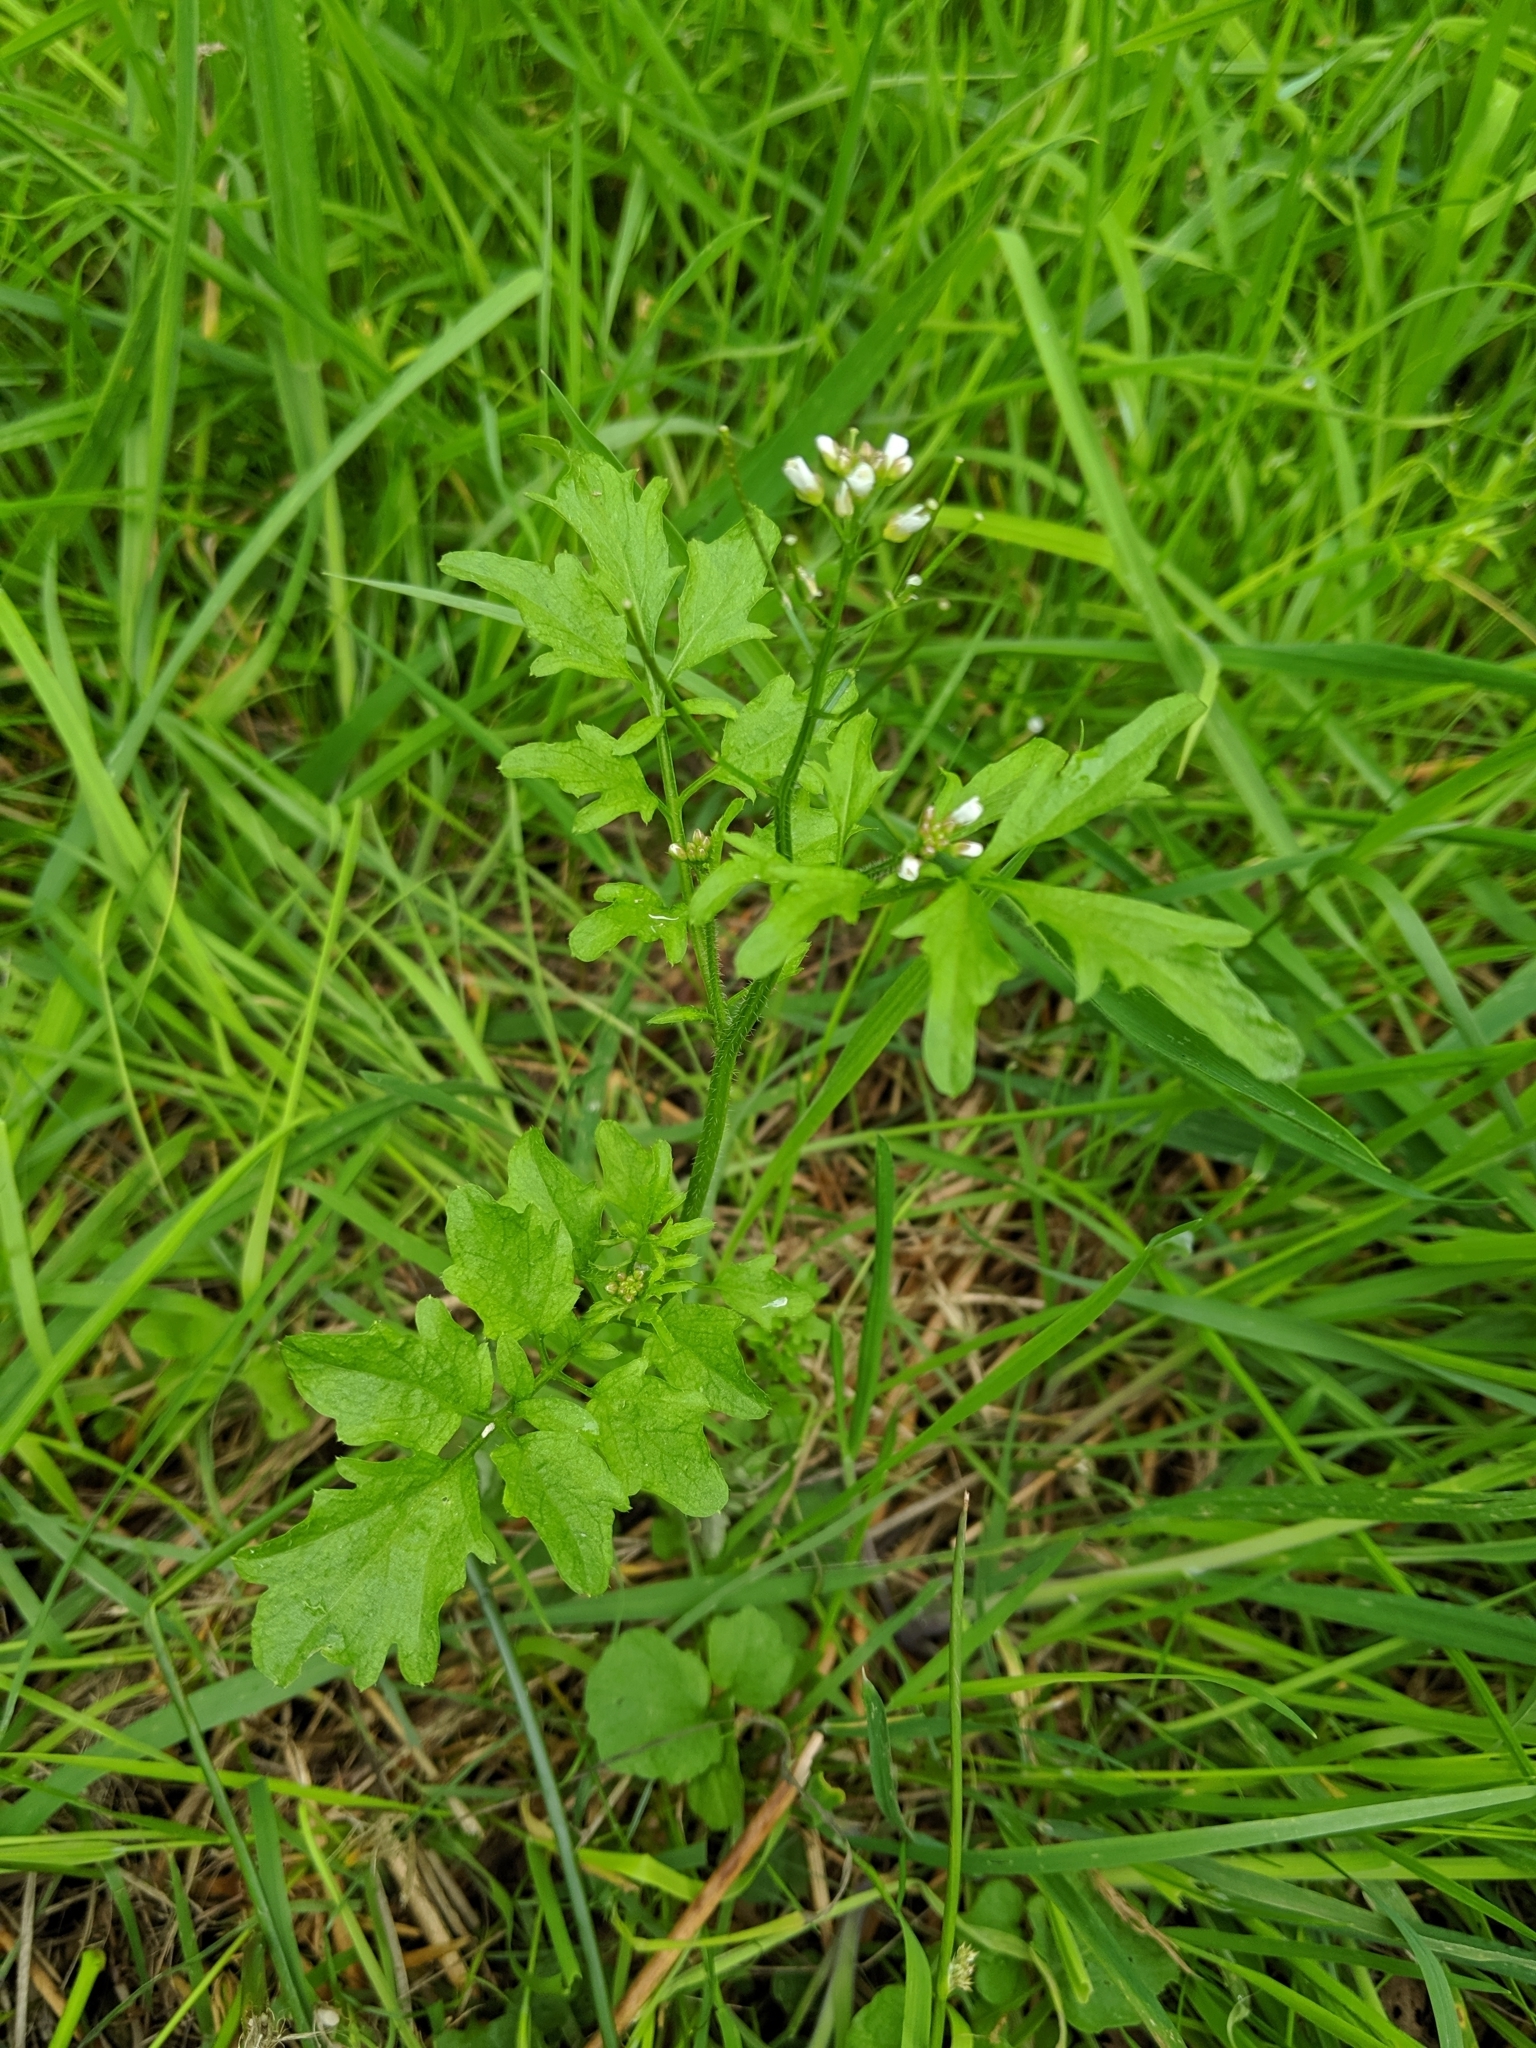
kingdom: Plantae
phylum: Tracheophyta
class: Magnoliopsida
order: Brassicales
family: Brassicaceae
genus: Cardamine
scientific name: Cardamine flexuosa
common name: Woodland bittercress
